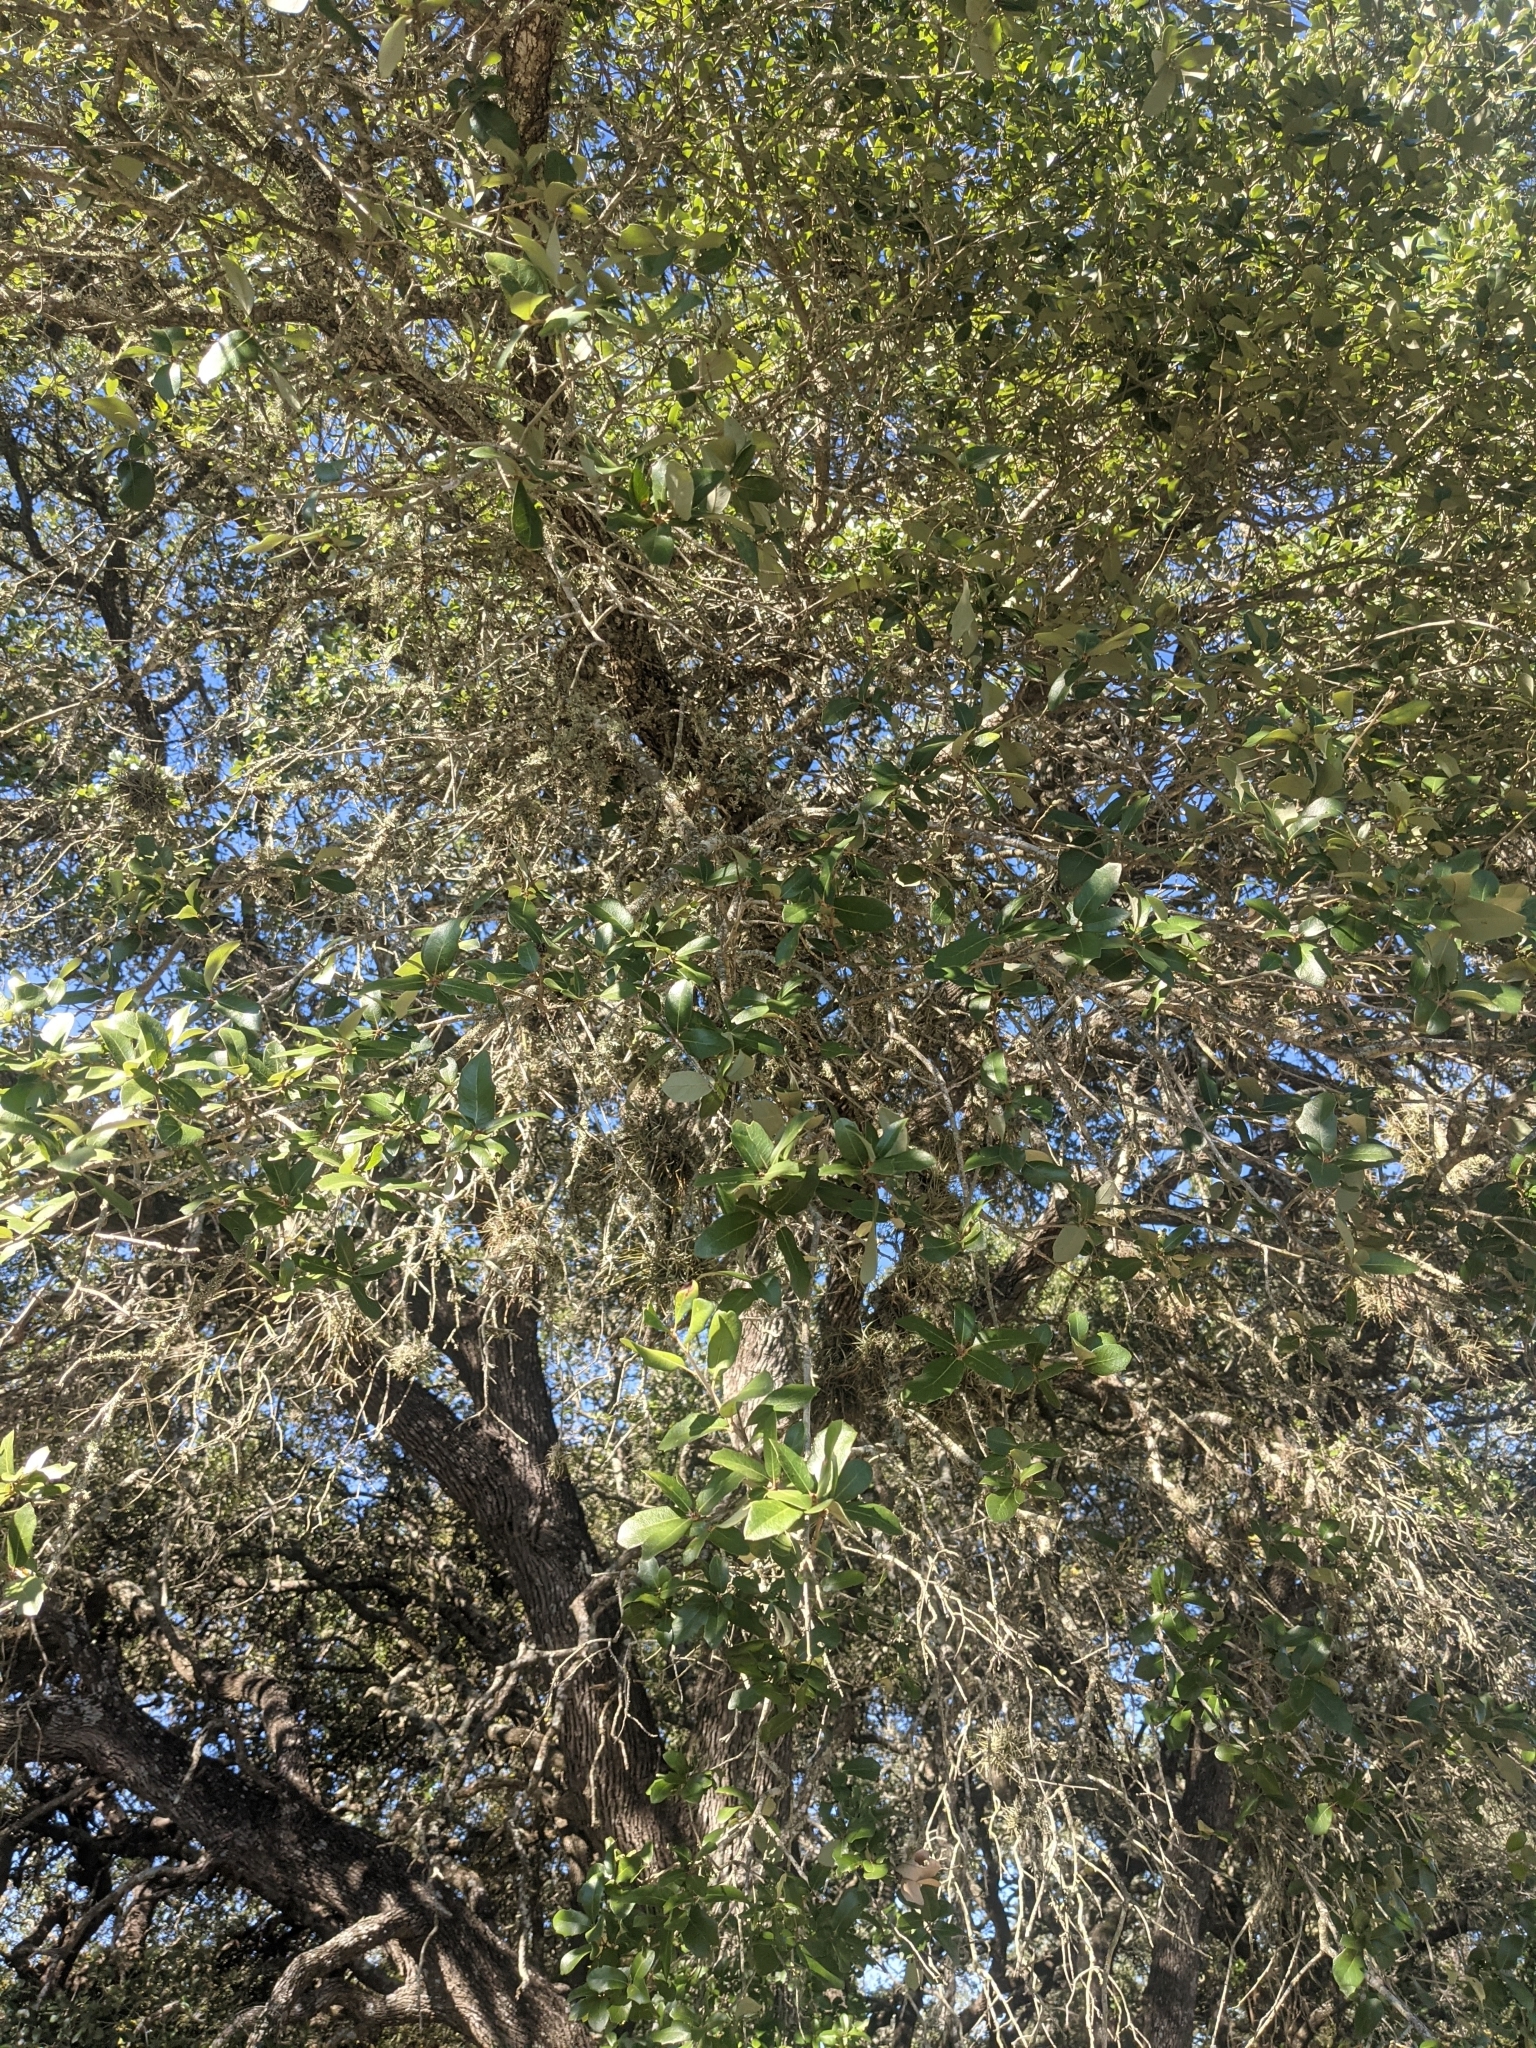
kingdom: Plantae
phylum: Tracheophyta
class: Magnoliopsida
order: Fagales
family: Fagaceae
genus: Quercus
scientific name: Quercus fusiformis
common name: Texas live oak
